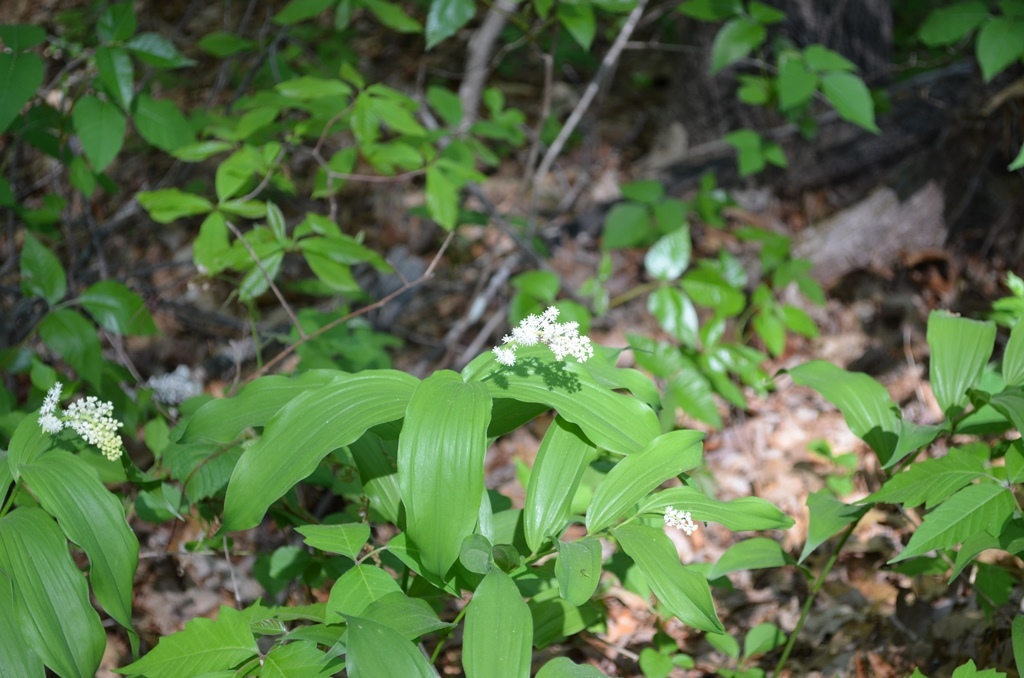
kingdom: Plantae
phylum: Tracheophyta
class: Liliopsida
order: Asparagales
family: Asparagaceae
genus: Maianthemum
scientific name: Maianthemum racemosum
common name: False spikenard
